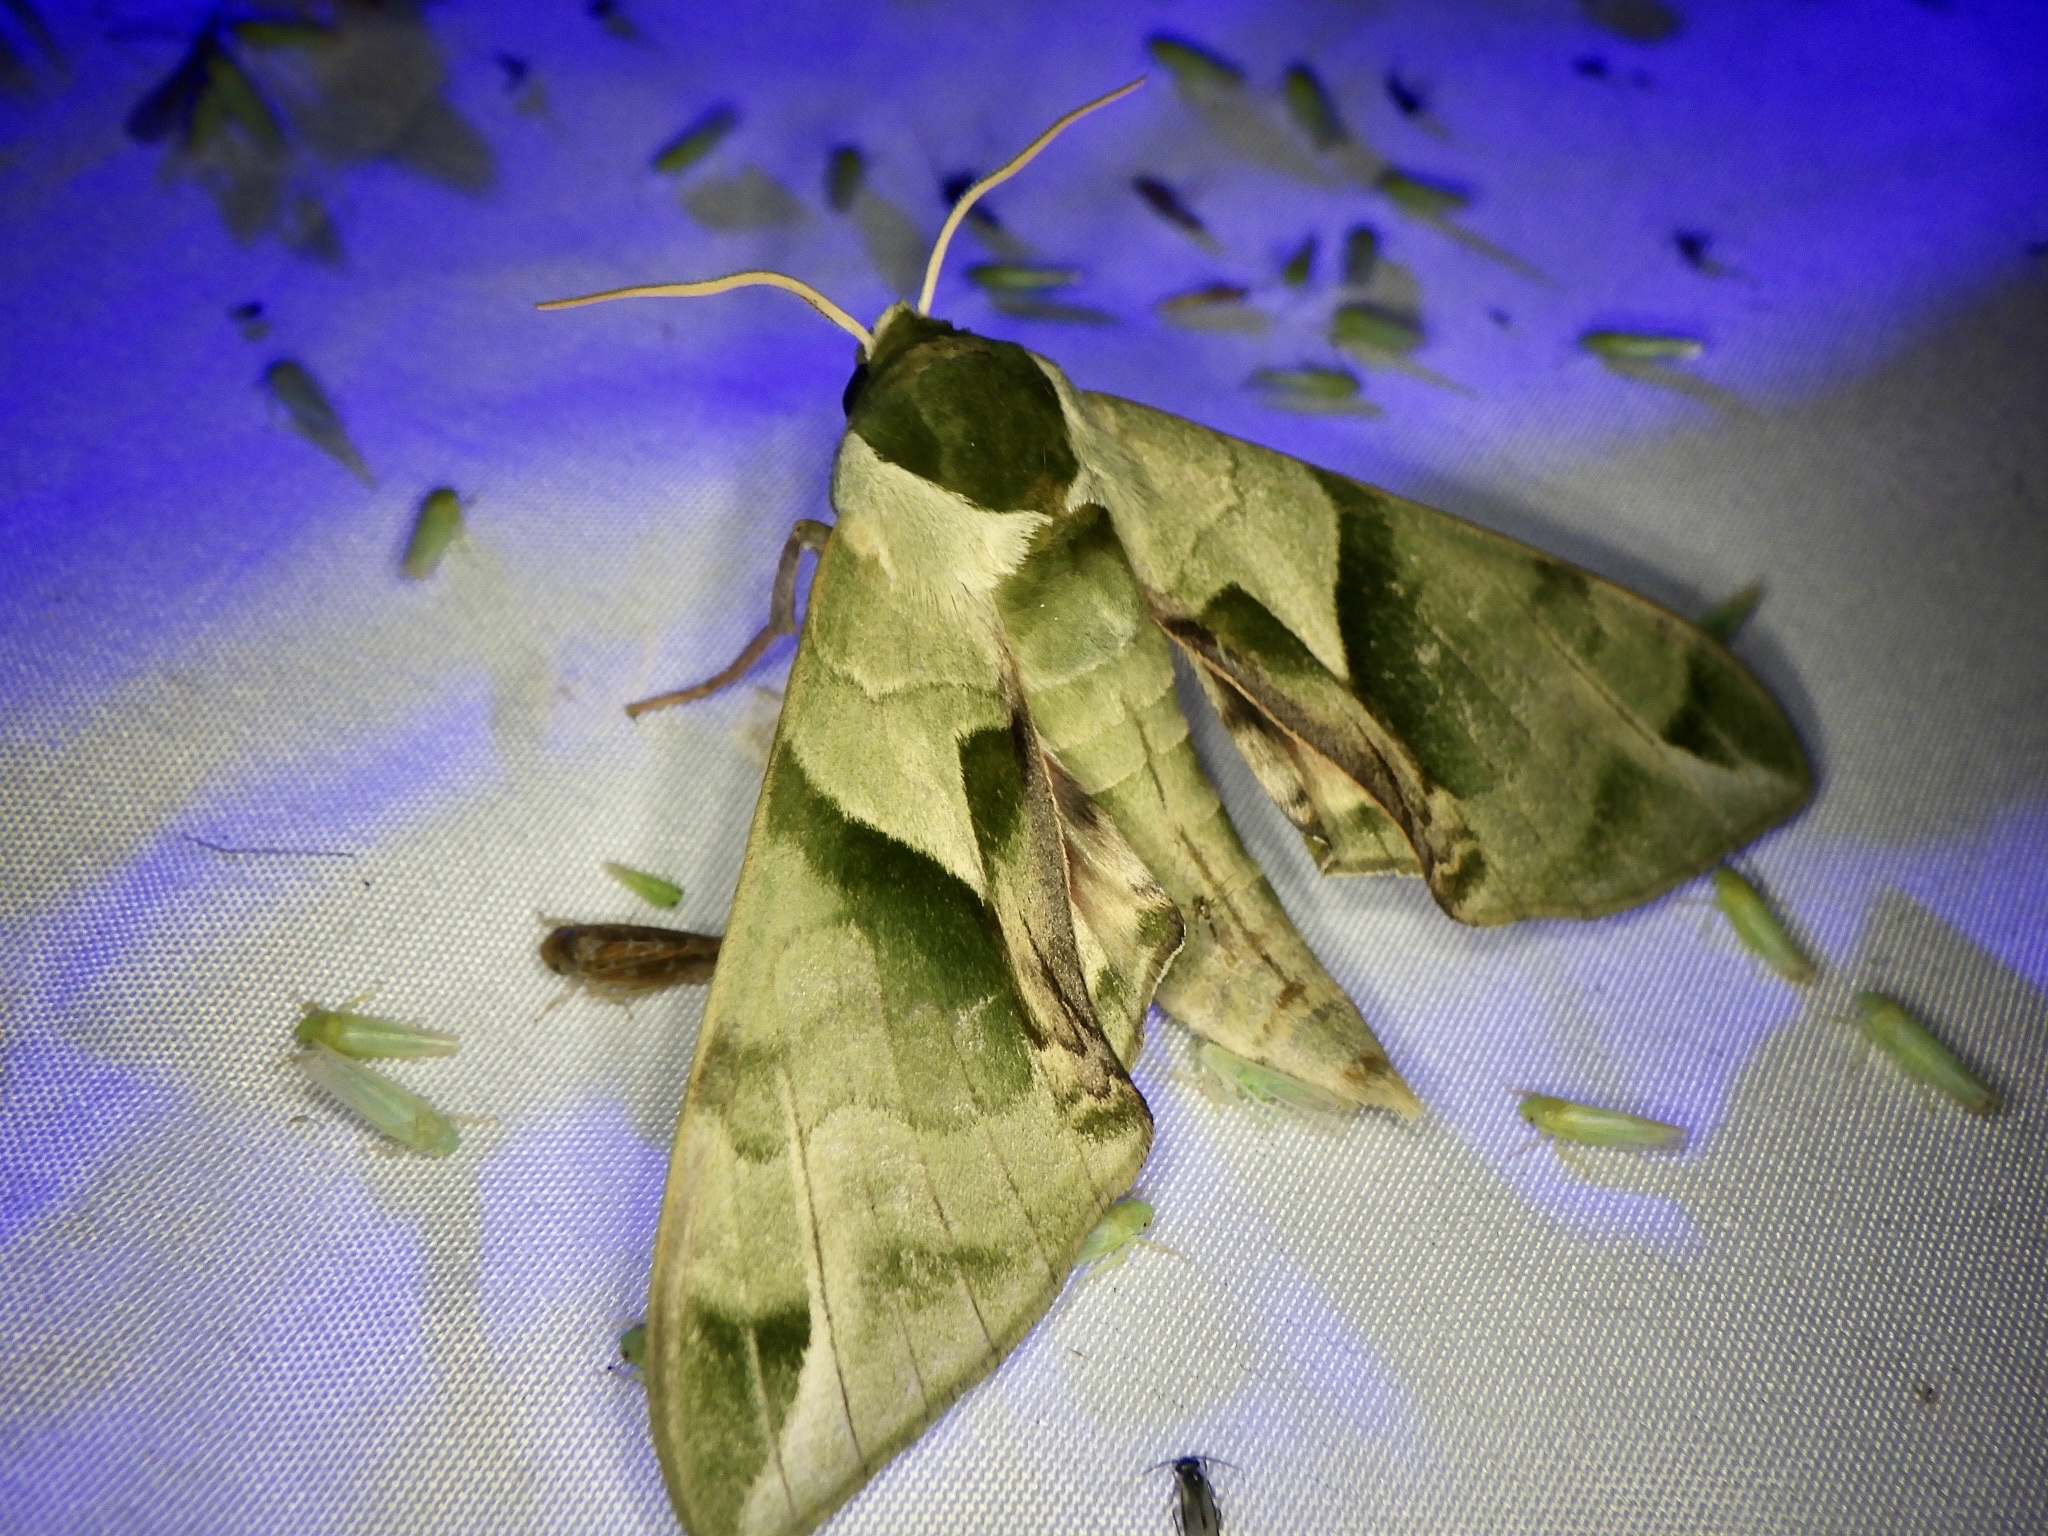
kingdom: Animalia
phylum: Arthropoda
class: Insecta
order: Lepidoptera
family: Sphingidae
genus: Callambulyx
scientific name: Callambulyx tatarinovii
